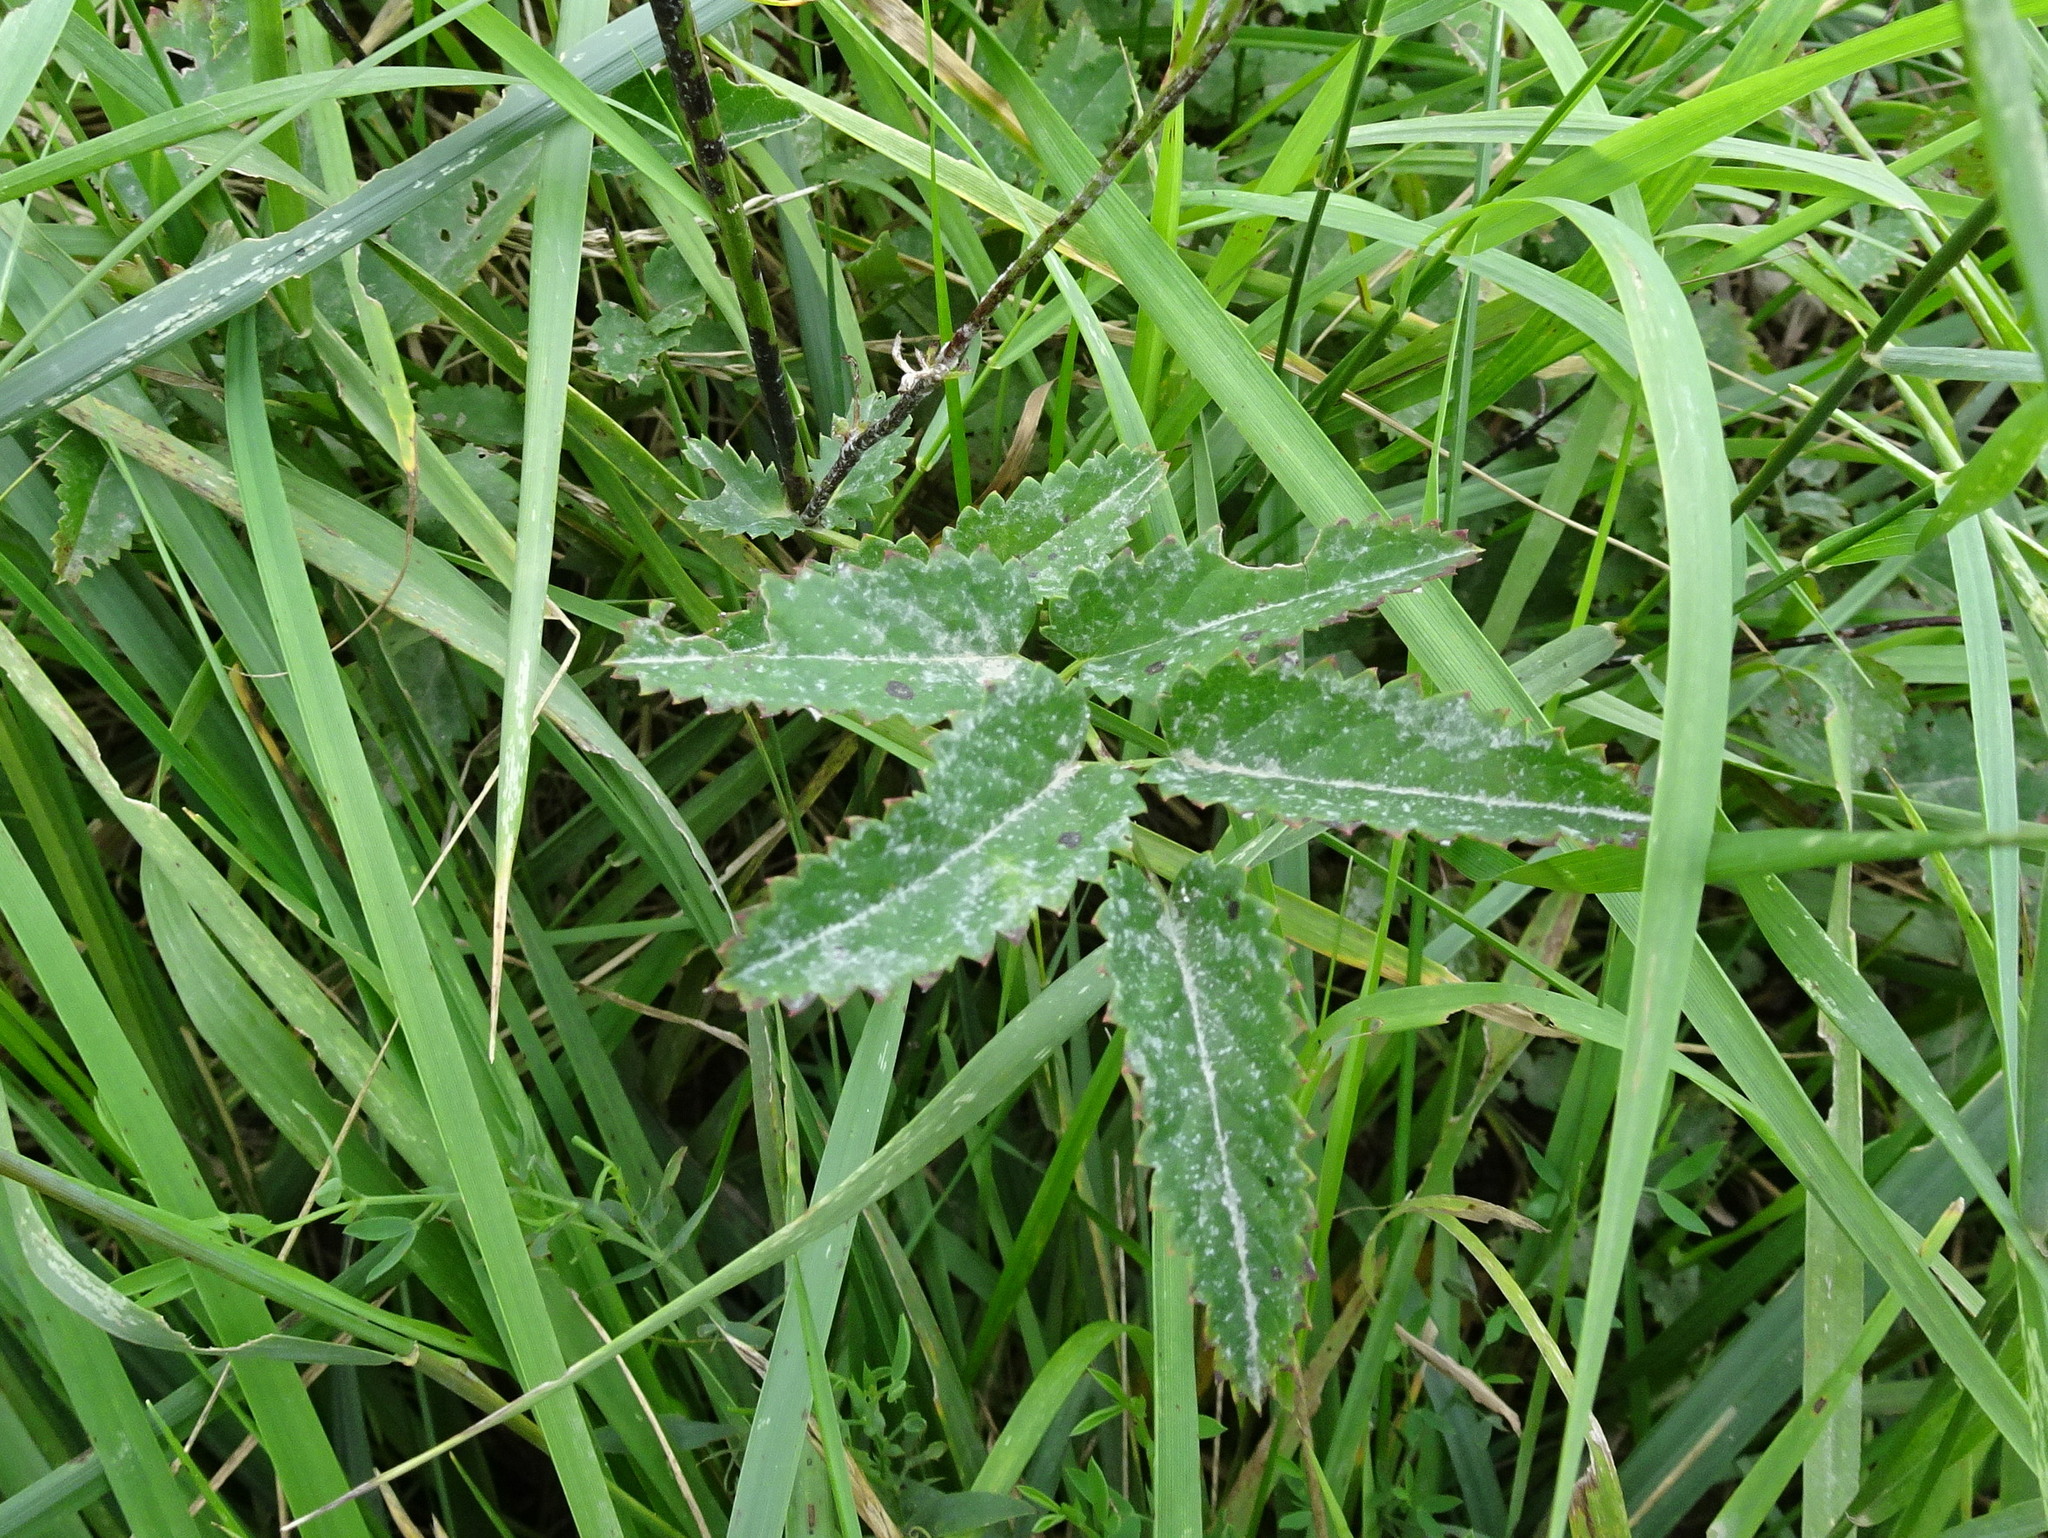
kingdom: Plantae
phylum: Tracheophyta
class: Magnoliopsida
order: Rosales
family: Rosaceae
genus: Sanguisorba
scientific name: Sanguisorba officinalis
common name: Great burnet
